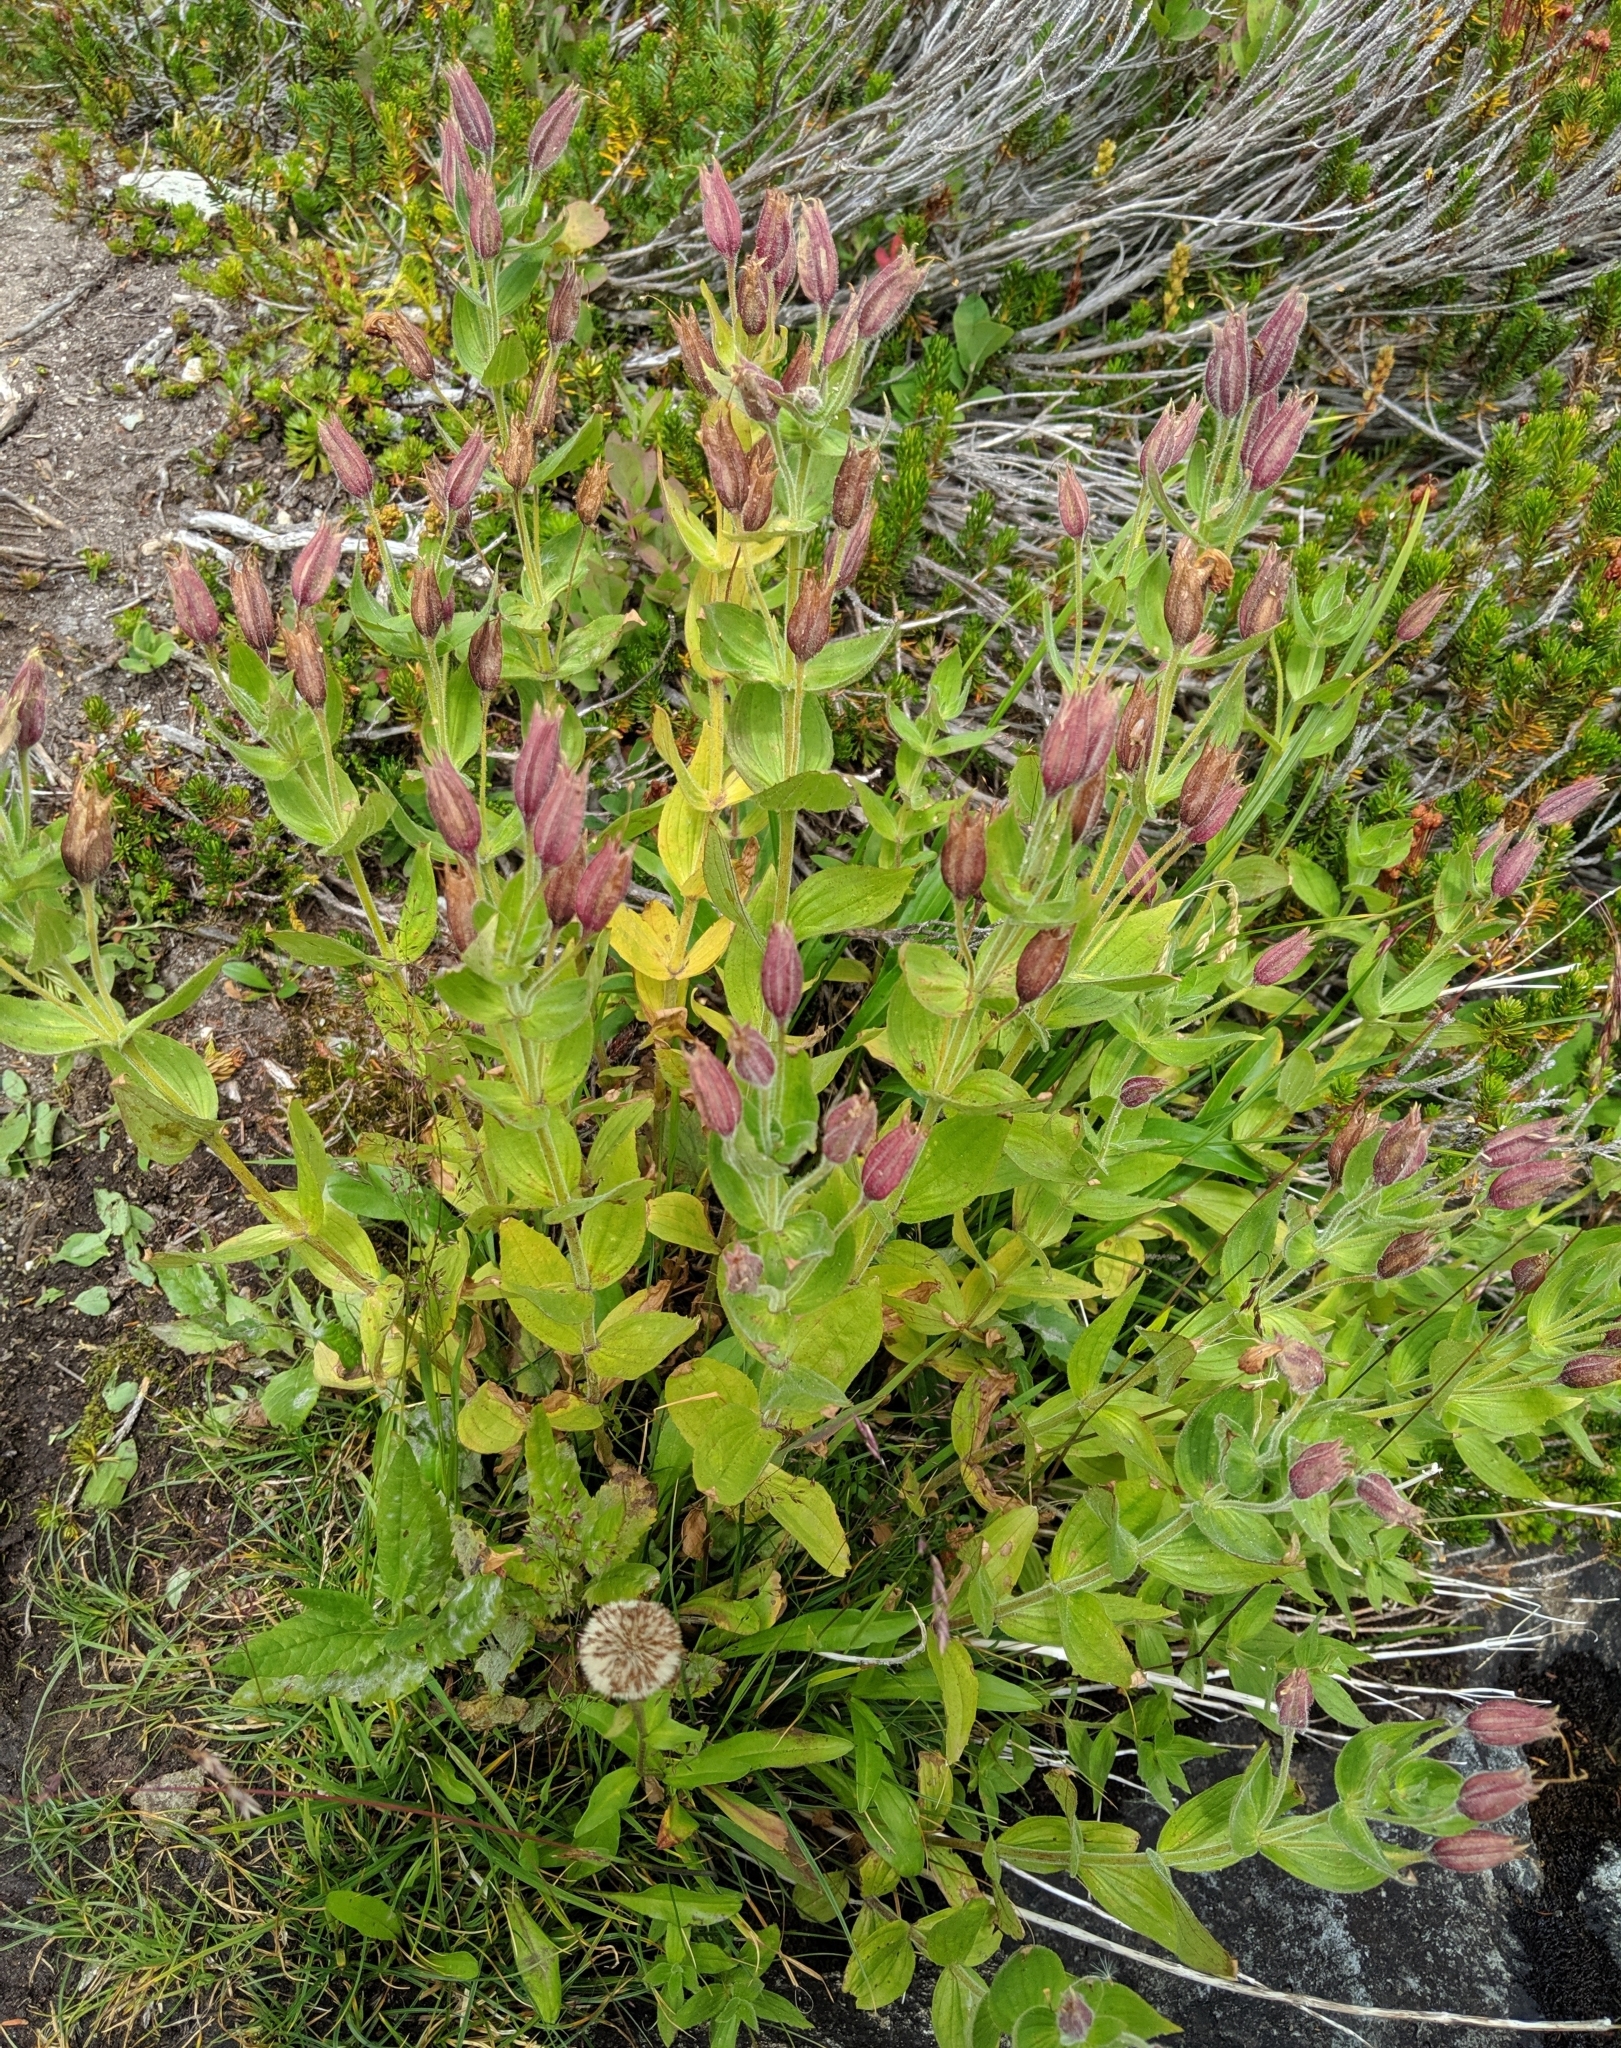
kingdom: Plantae
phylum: Tracheophyta
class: Magnoliopsida
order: Lamiales
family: Phrymaceae
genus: Erythranthe
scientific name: Erythranthe lewisii
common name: Lewis's monkey-flower
